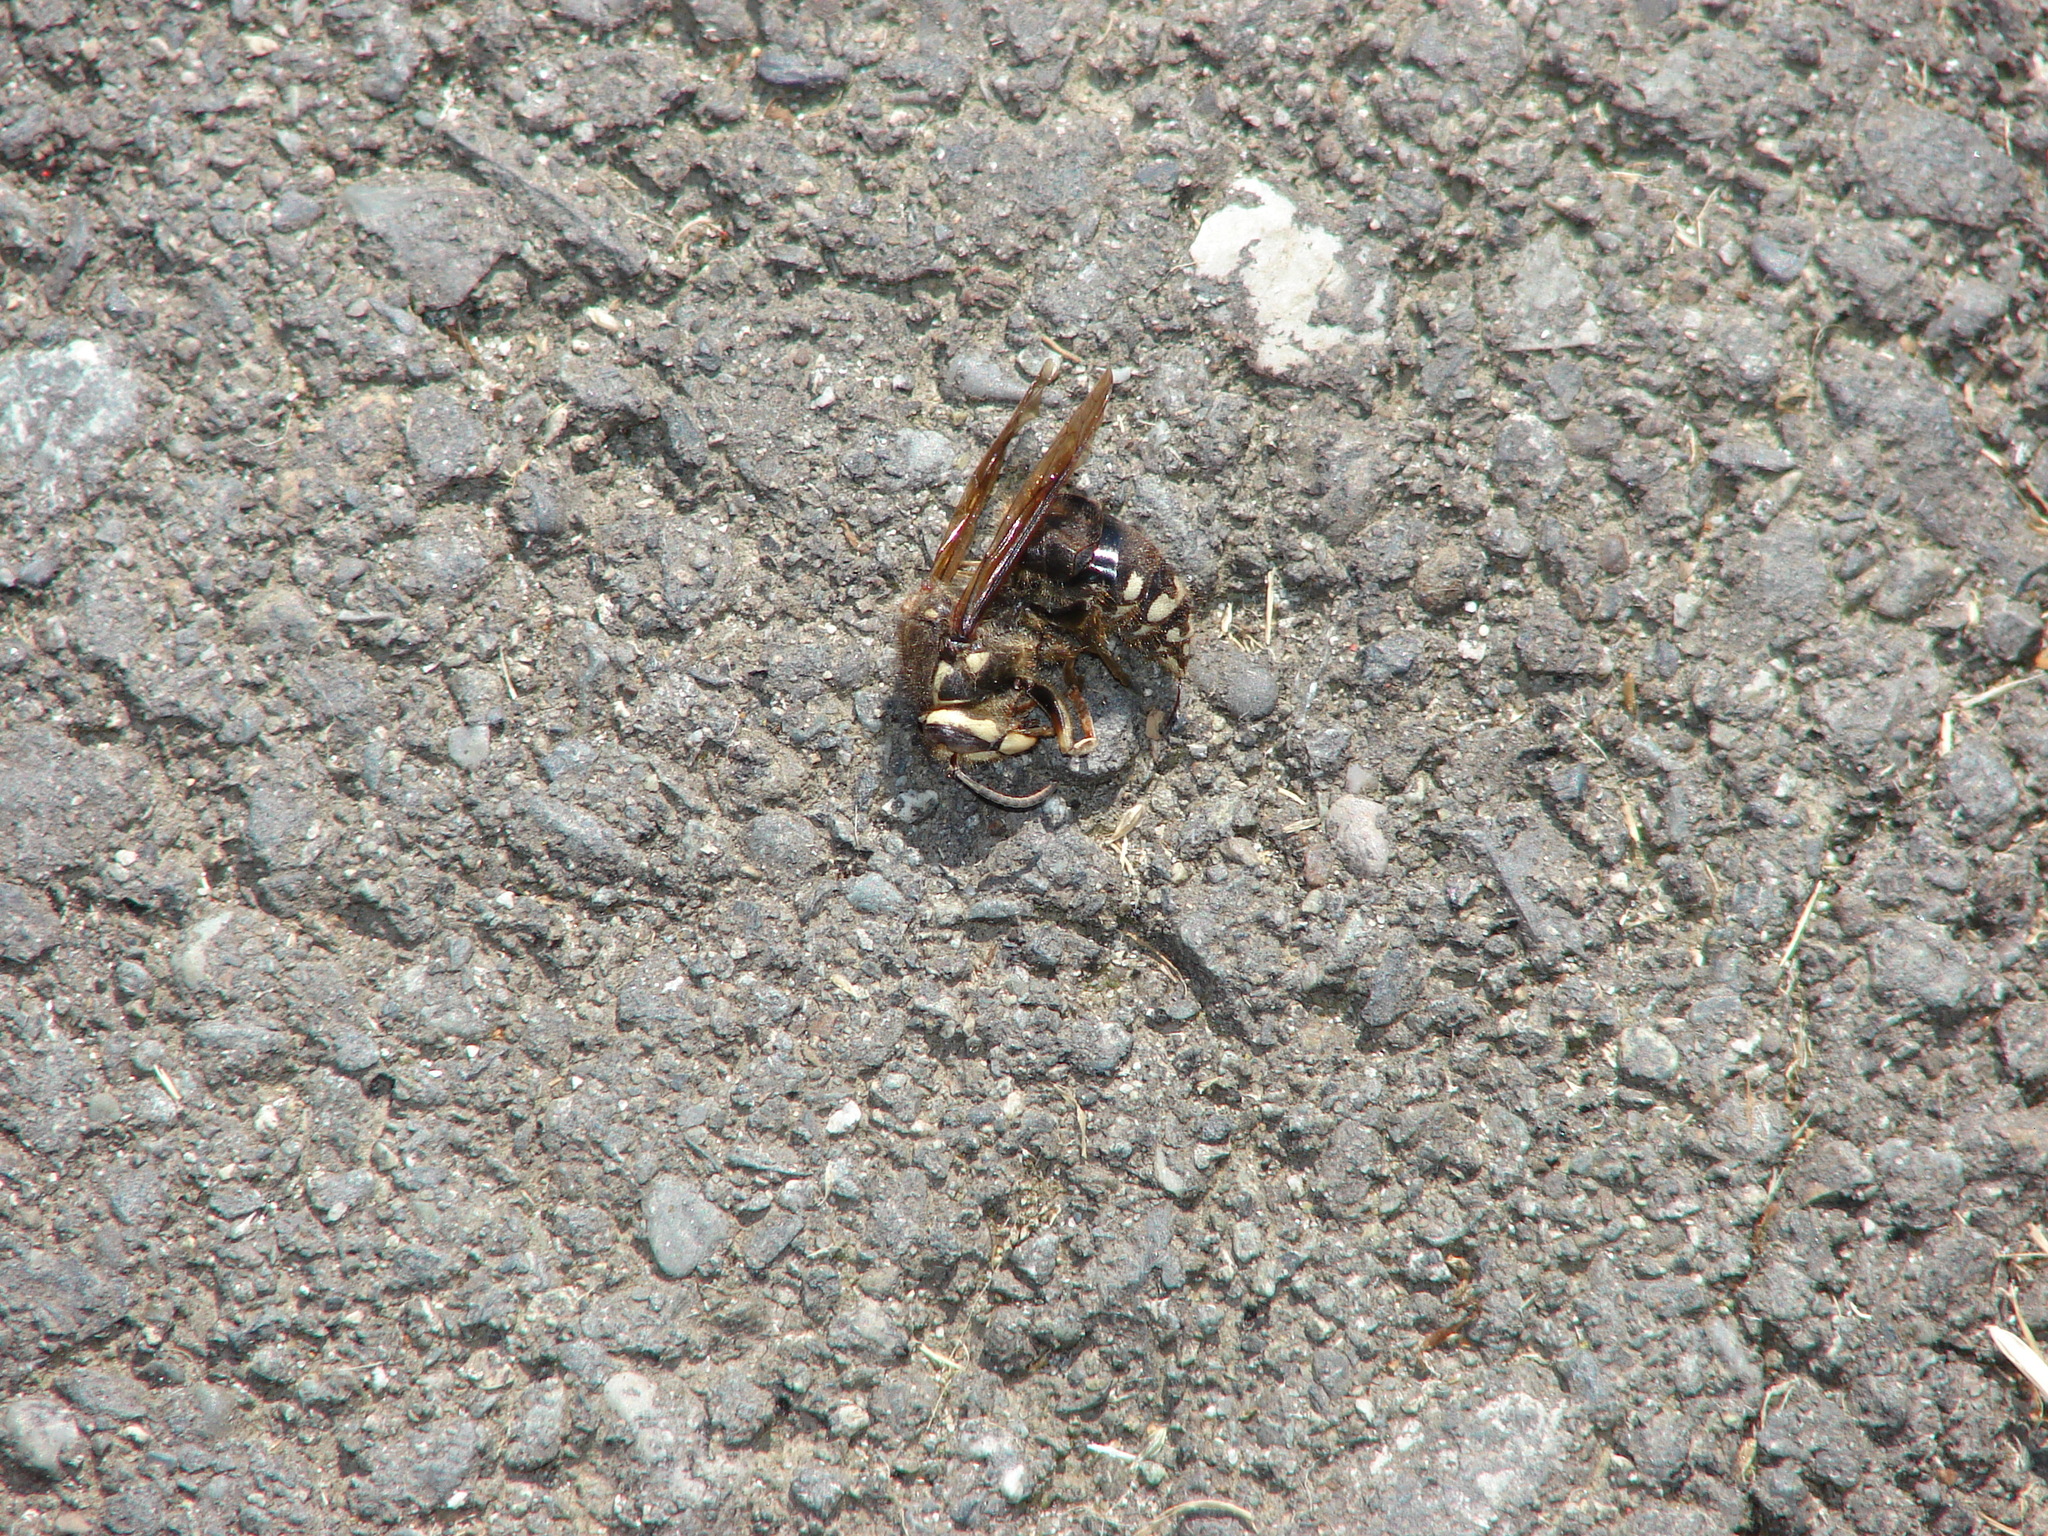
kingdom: Animalia
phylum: Arthropoda
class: Insecta
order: Hymenoptera
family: Vespidae
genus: Dolichovespula
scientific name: Dolichovespula maculata
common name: Bald-faced hornet
